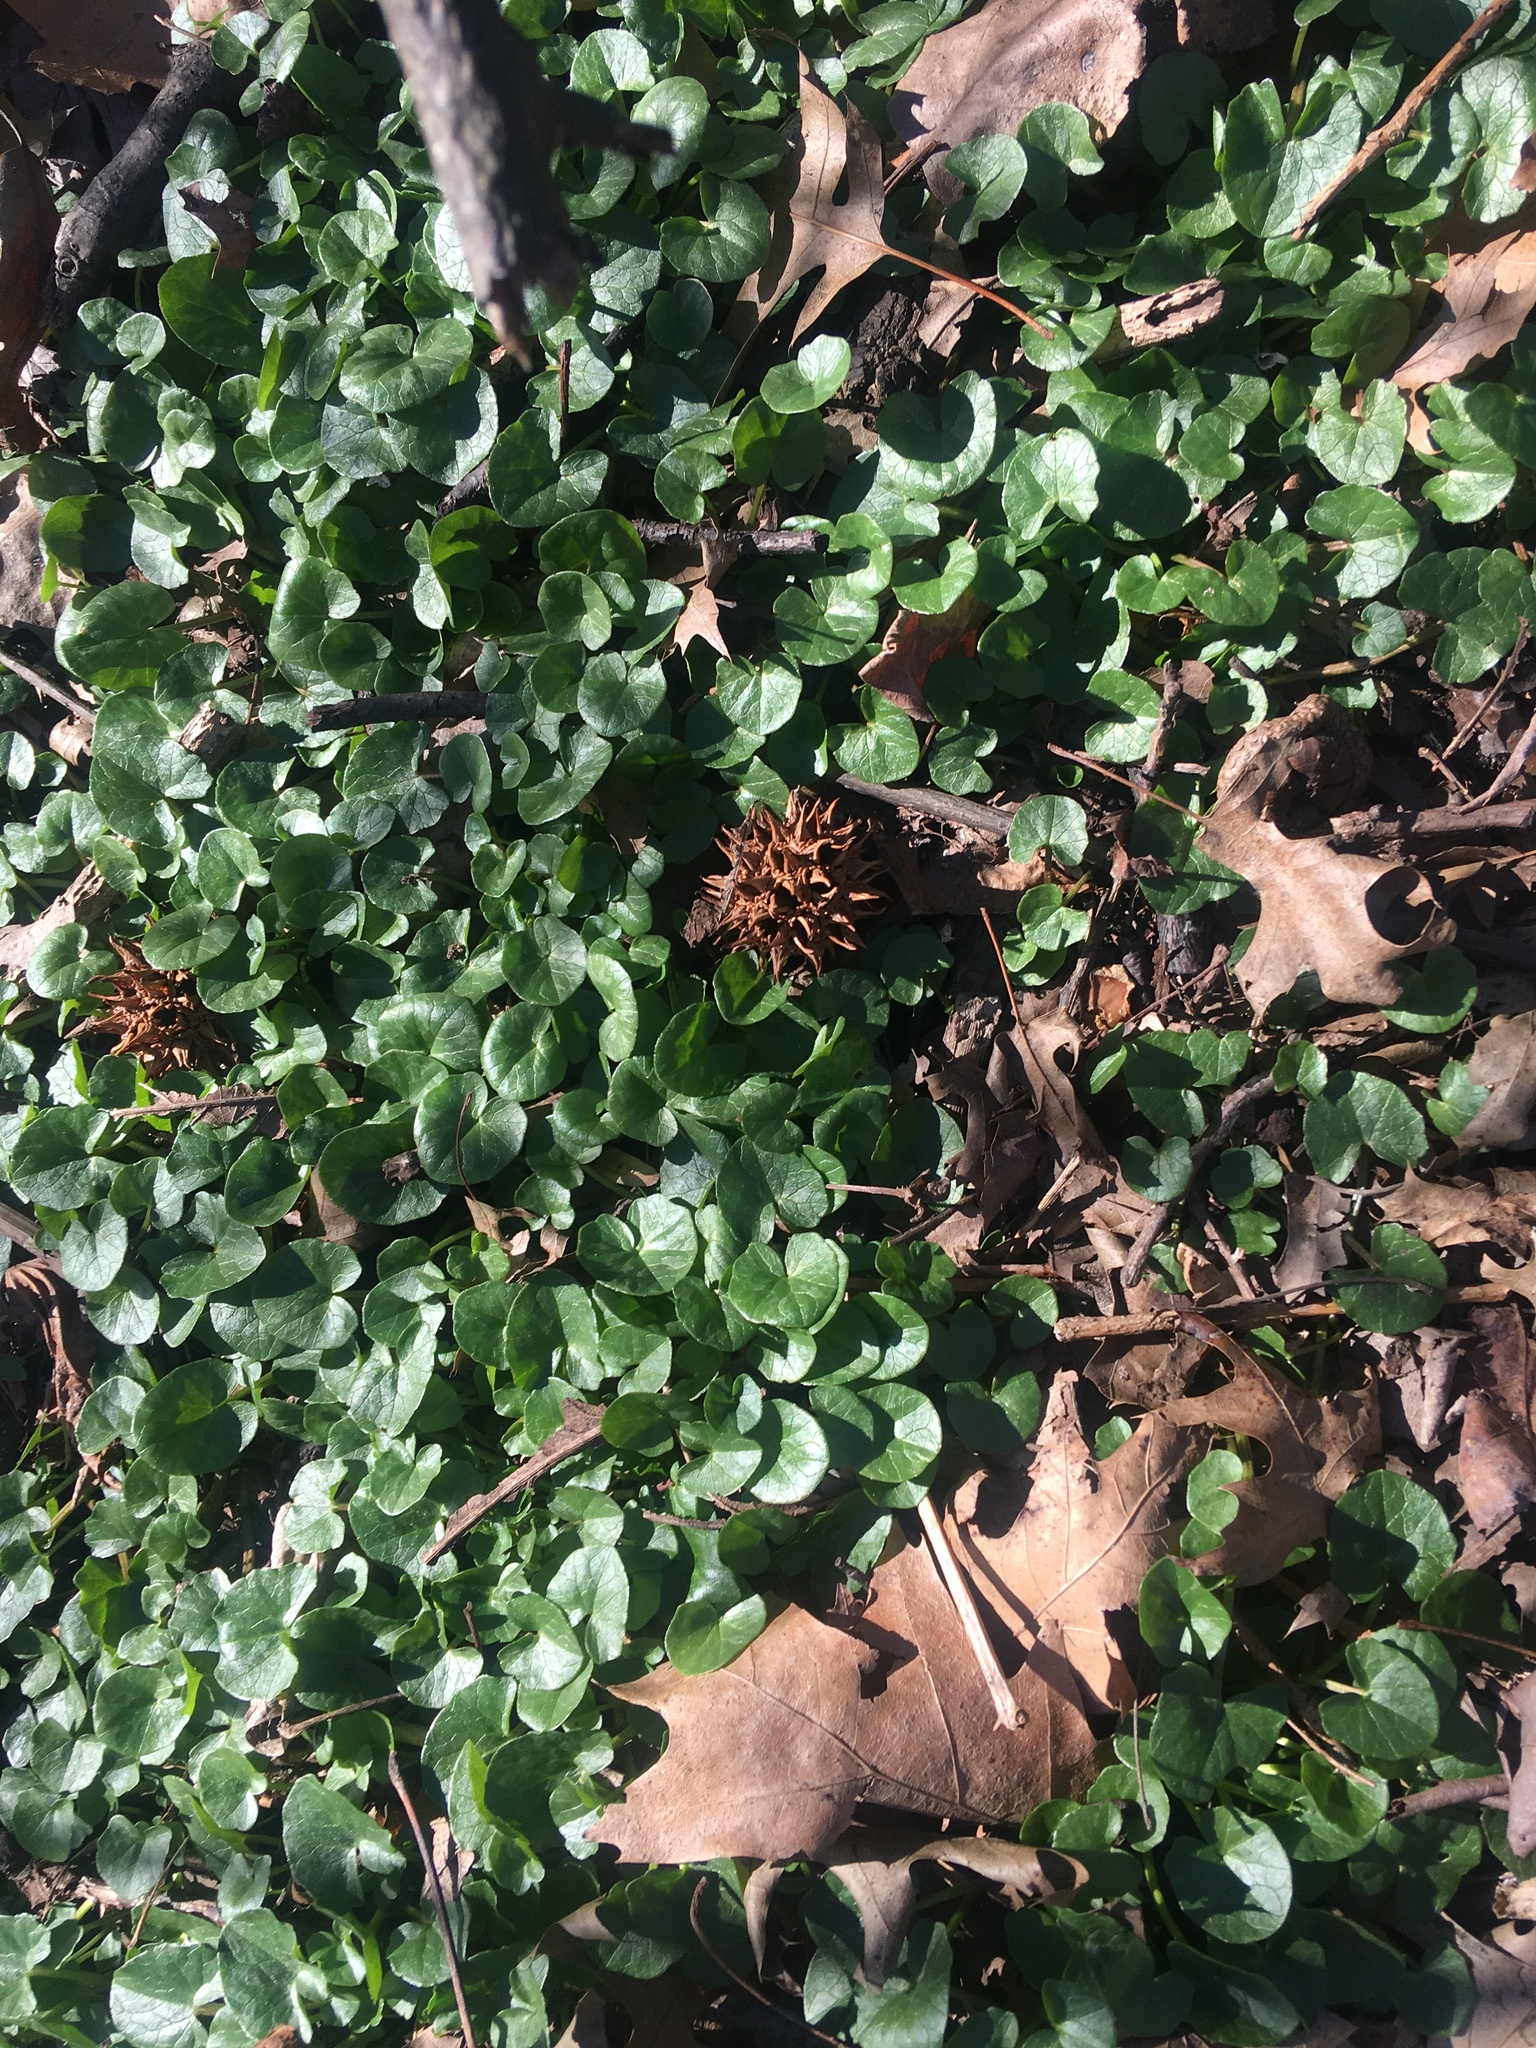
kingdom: Plantae
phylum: Tracheophyta
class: Magnoliopsida
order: Ranunculales
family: Ranunculaceae
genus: Ficaria
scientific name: Ficaria verna
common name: Lesser celandine
